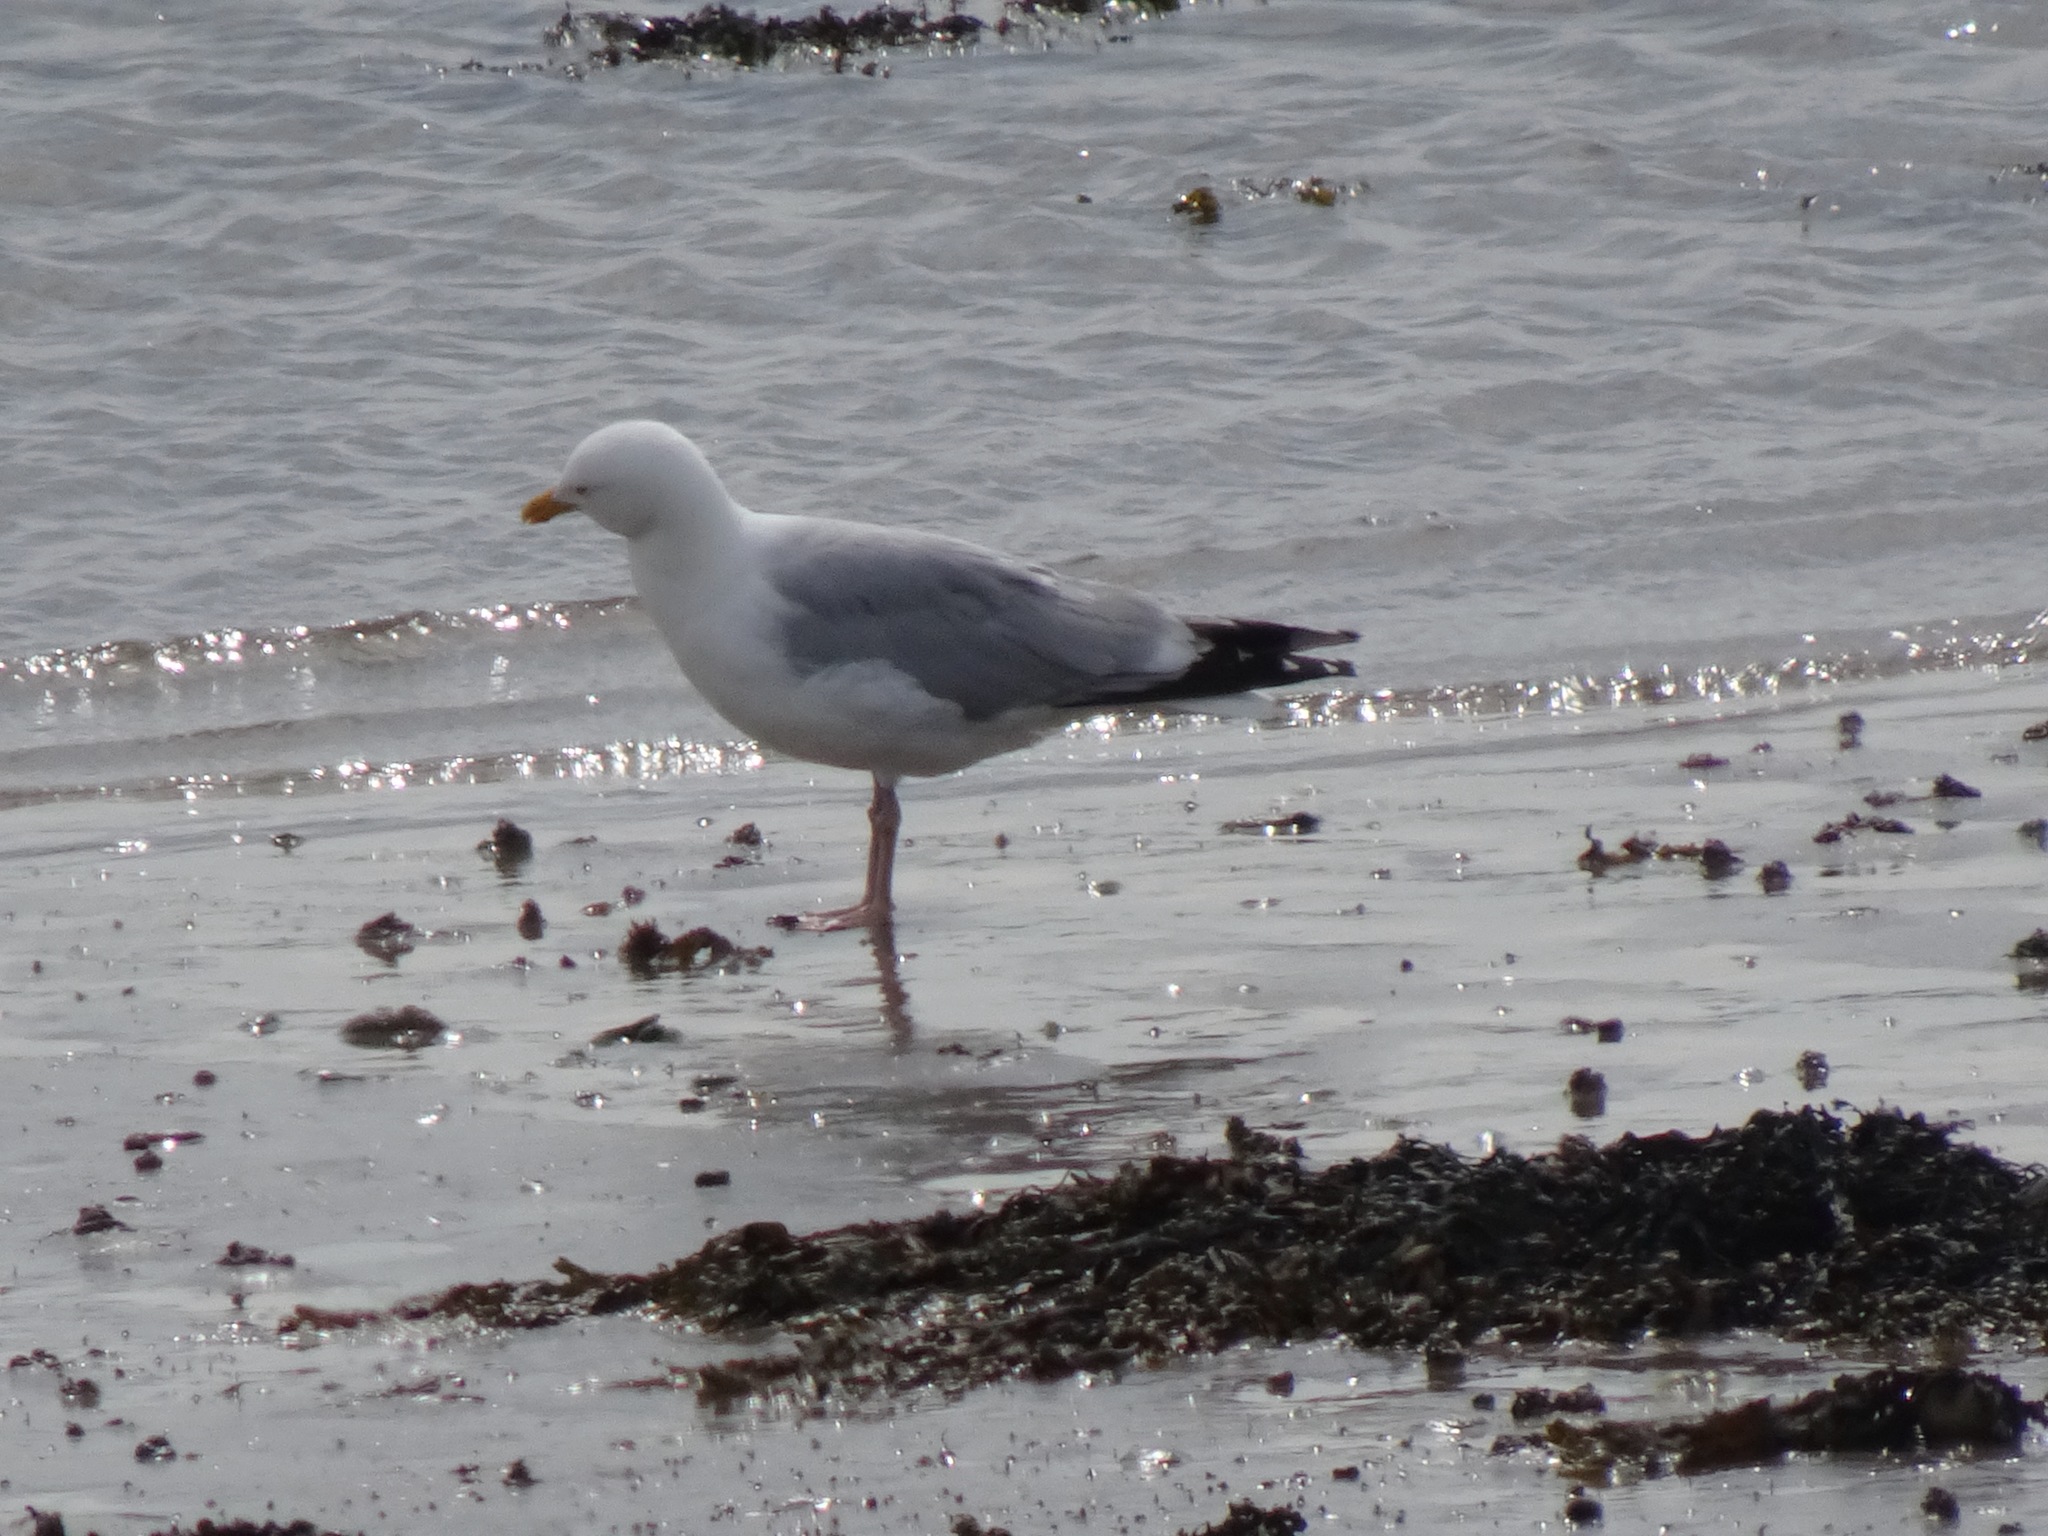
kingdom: Animalia
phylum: Chordata
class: Aves
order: Charadriiformes
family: Laridae
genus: Larus
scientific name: Larus argentatus
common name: Herring gull
